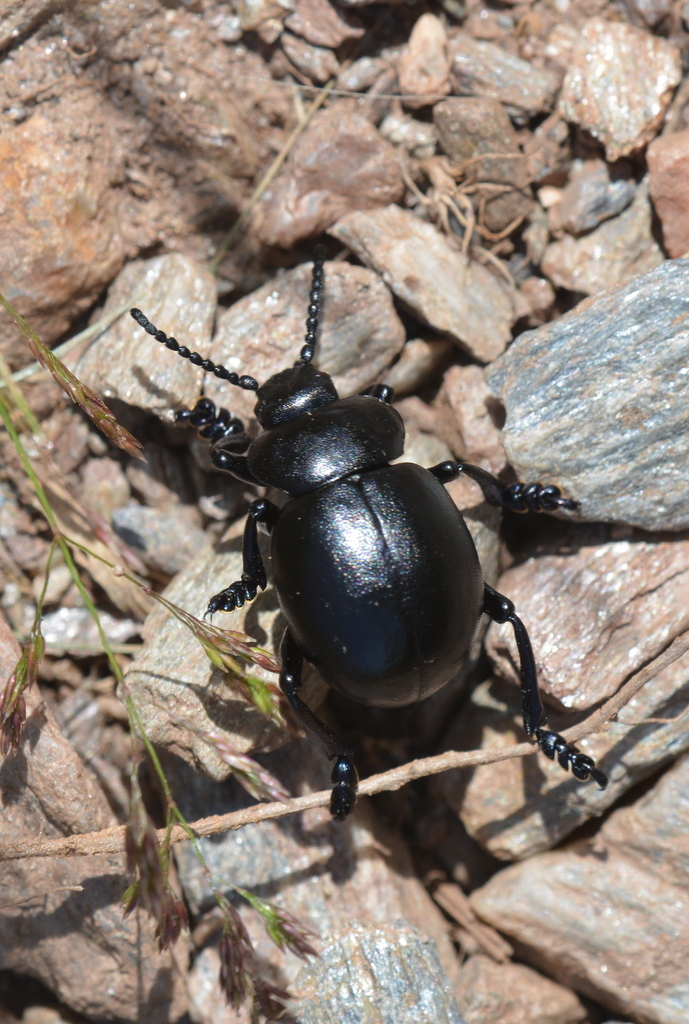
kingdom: Animalia
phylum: Arthropoda
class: Insecta
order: Coleoptera
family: Chrysomelidae
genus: Timarcha
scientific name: Timarcha tenebricosa
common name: Bloody-nosed beetle
